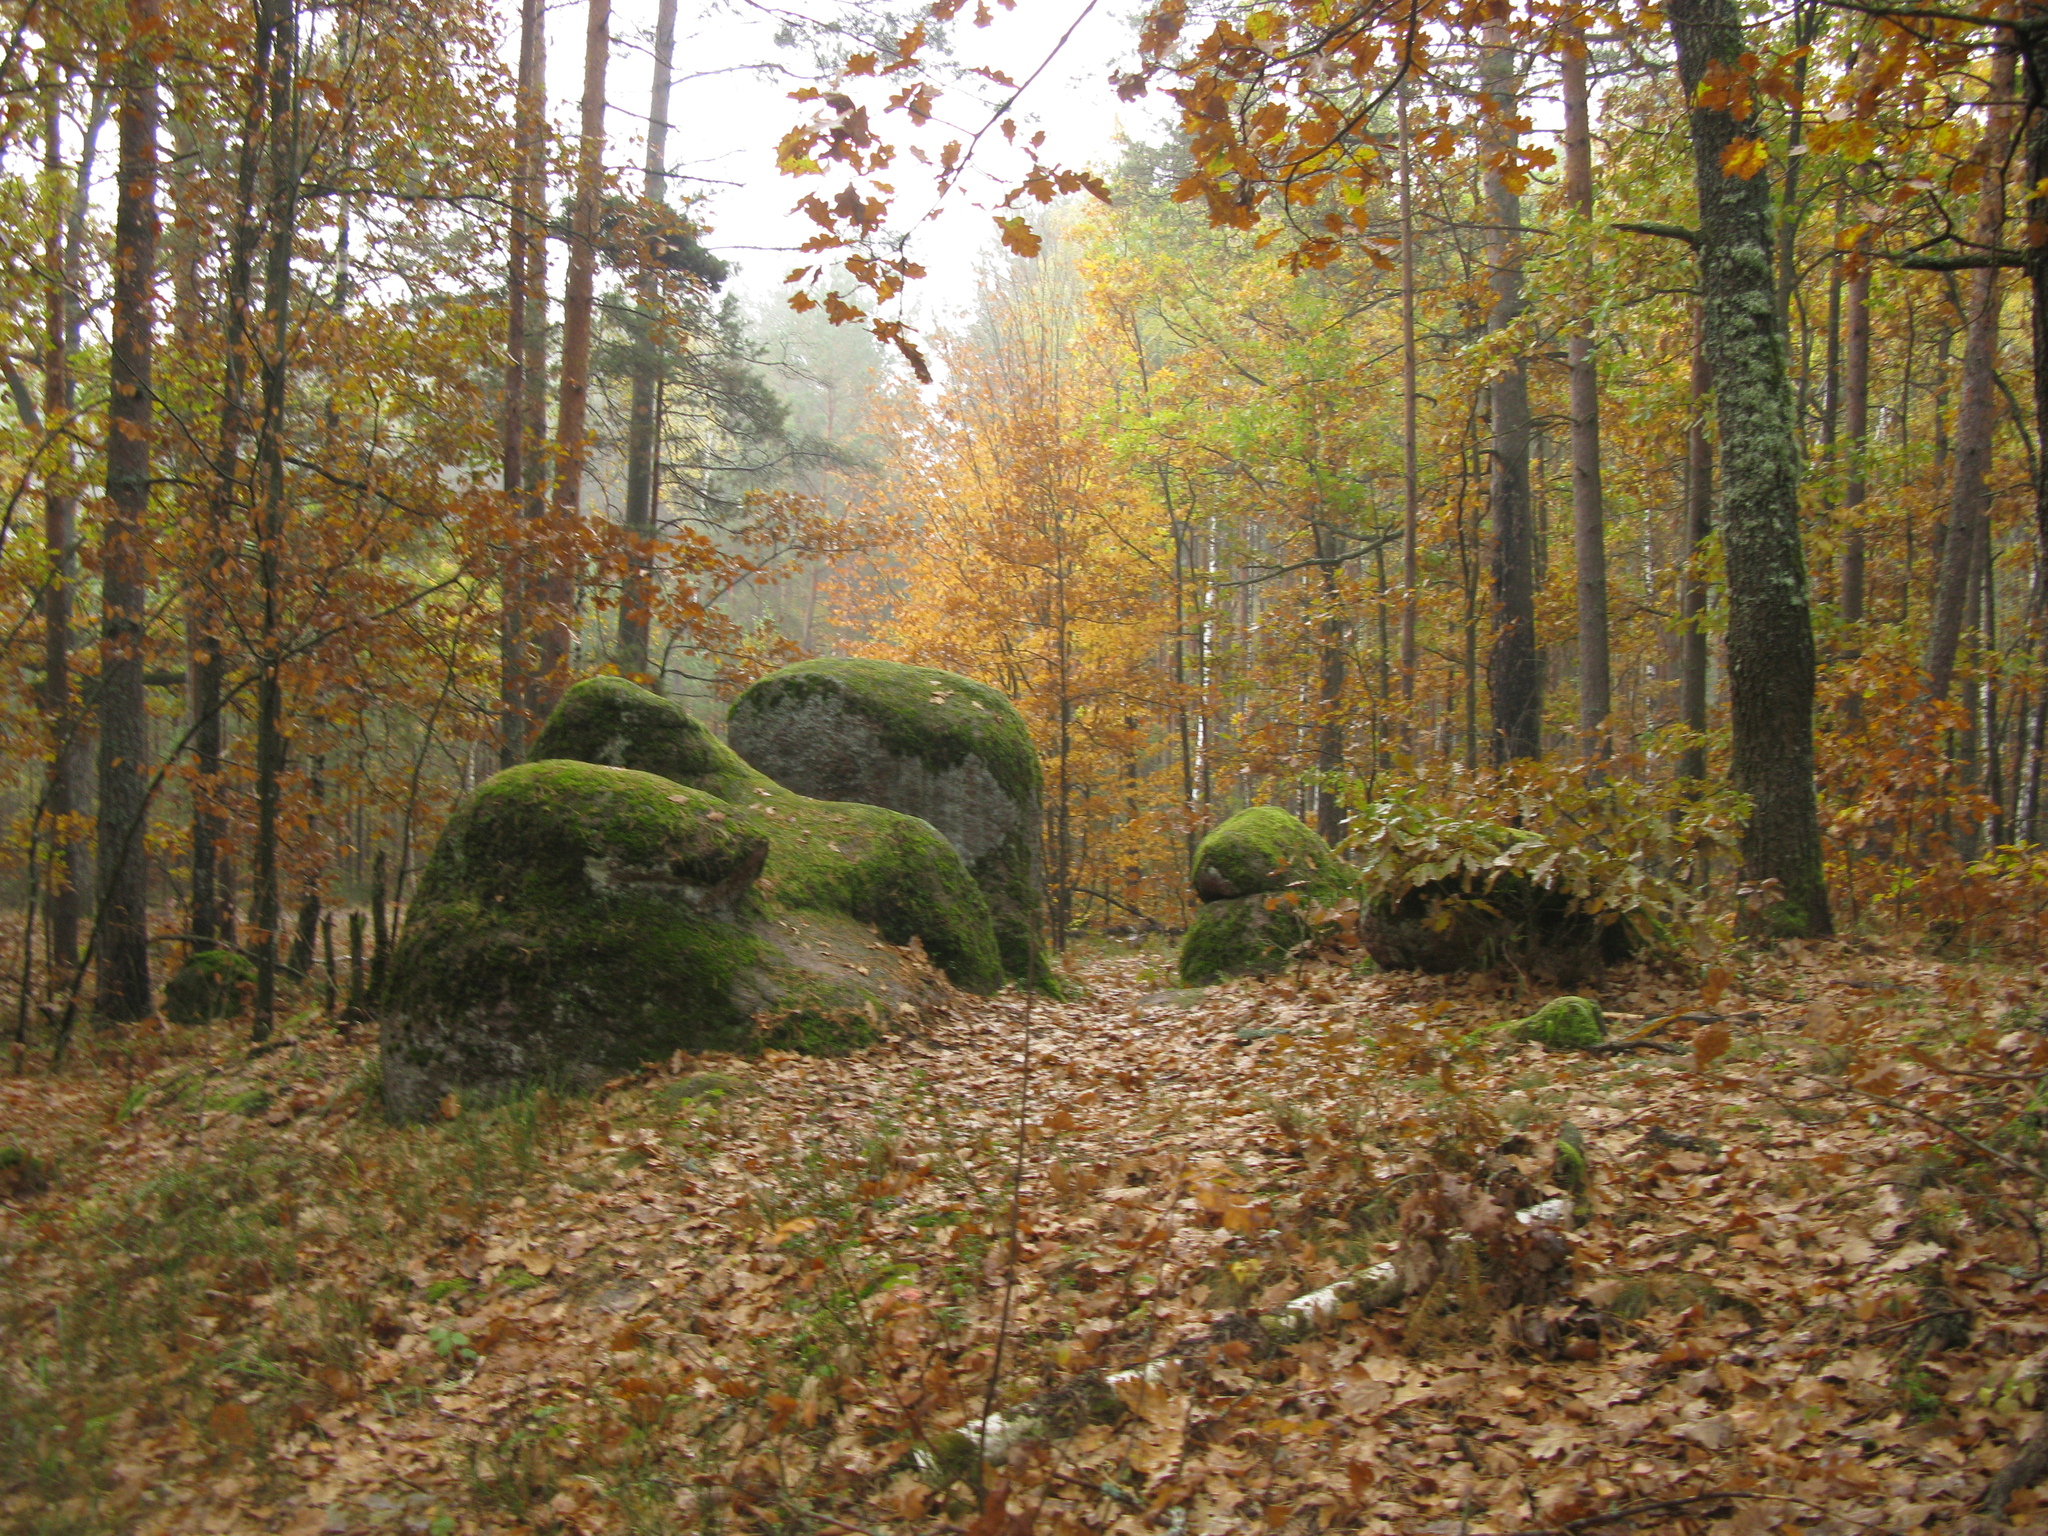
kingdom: Plantae
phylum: Tracheophyta
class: Magnoliopsida
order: Fagales
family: Fagaceae
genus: Quercus
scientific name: Quercus robur
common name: Pedunculate oak
